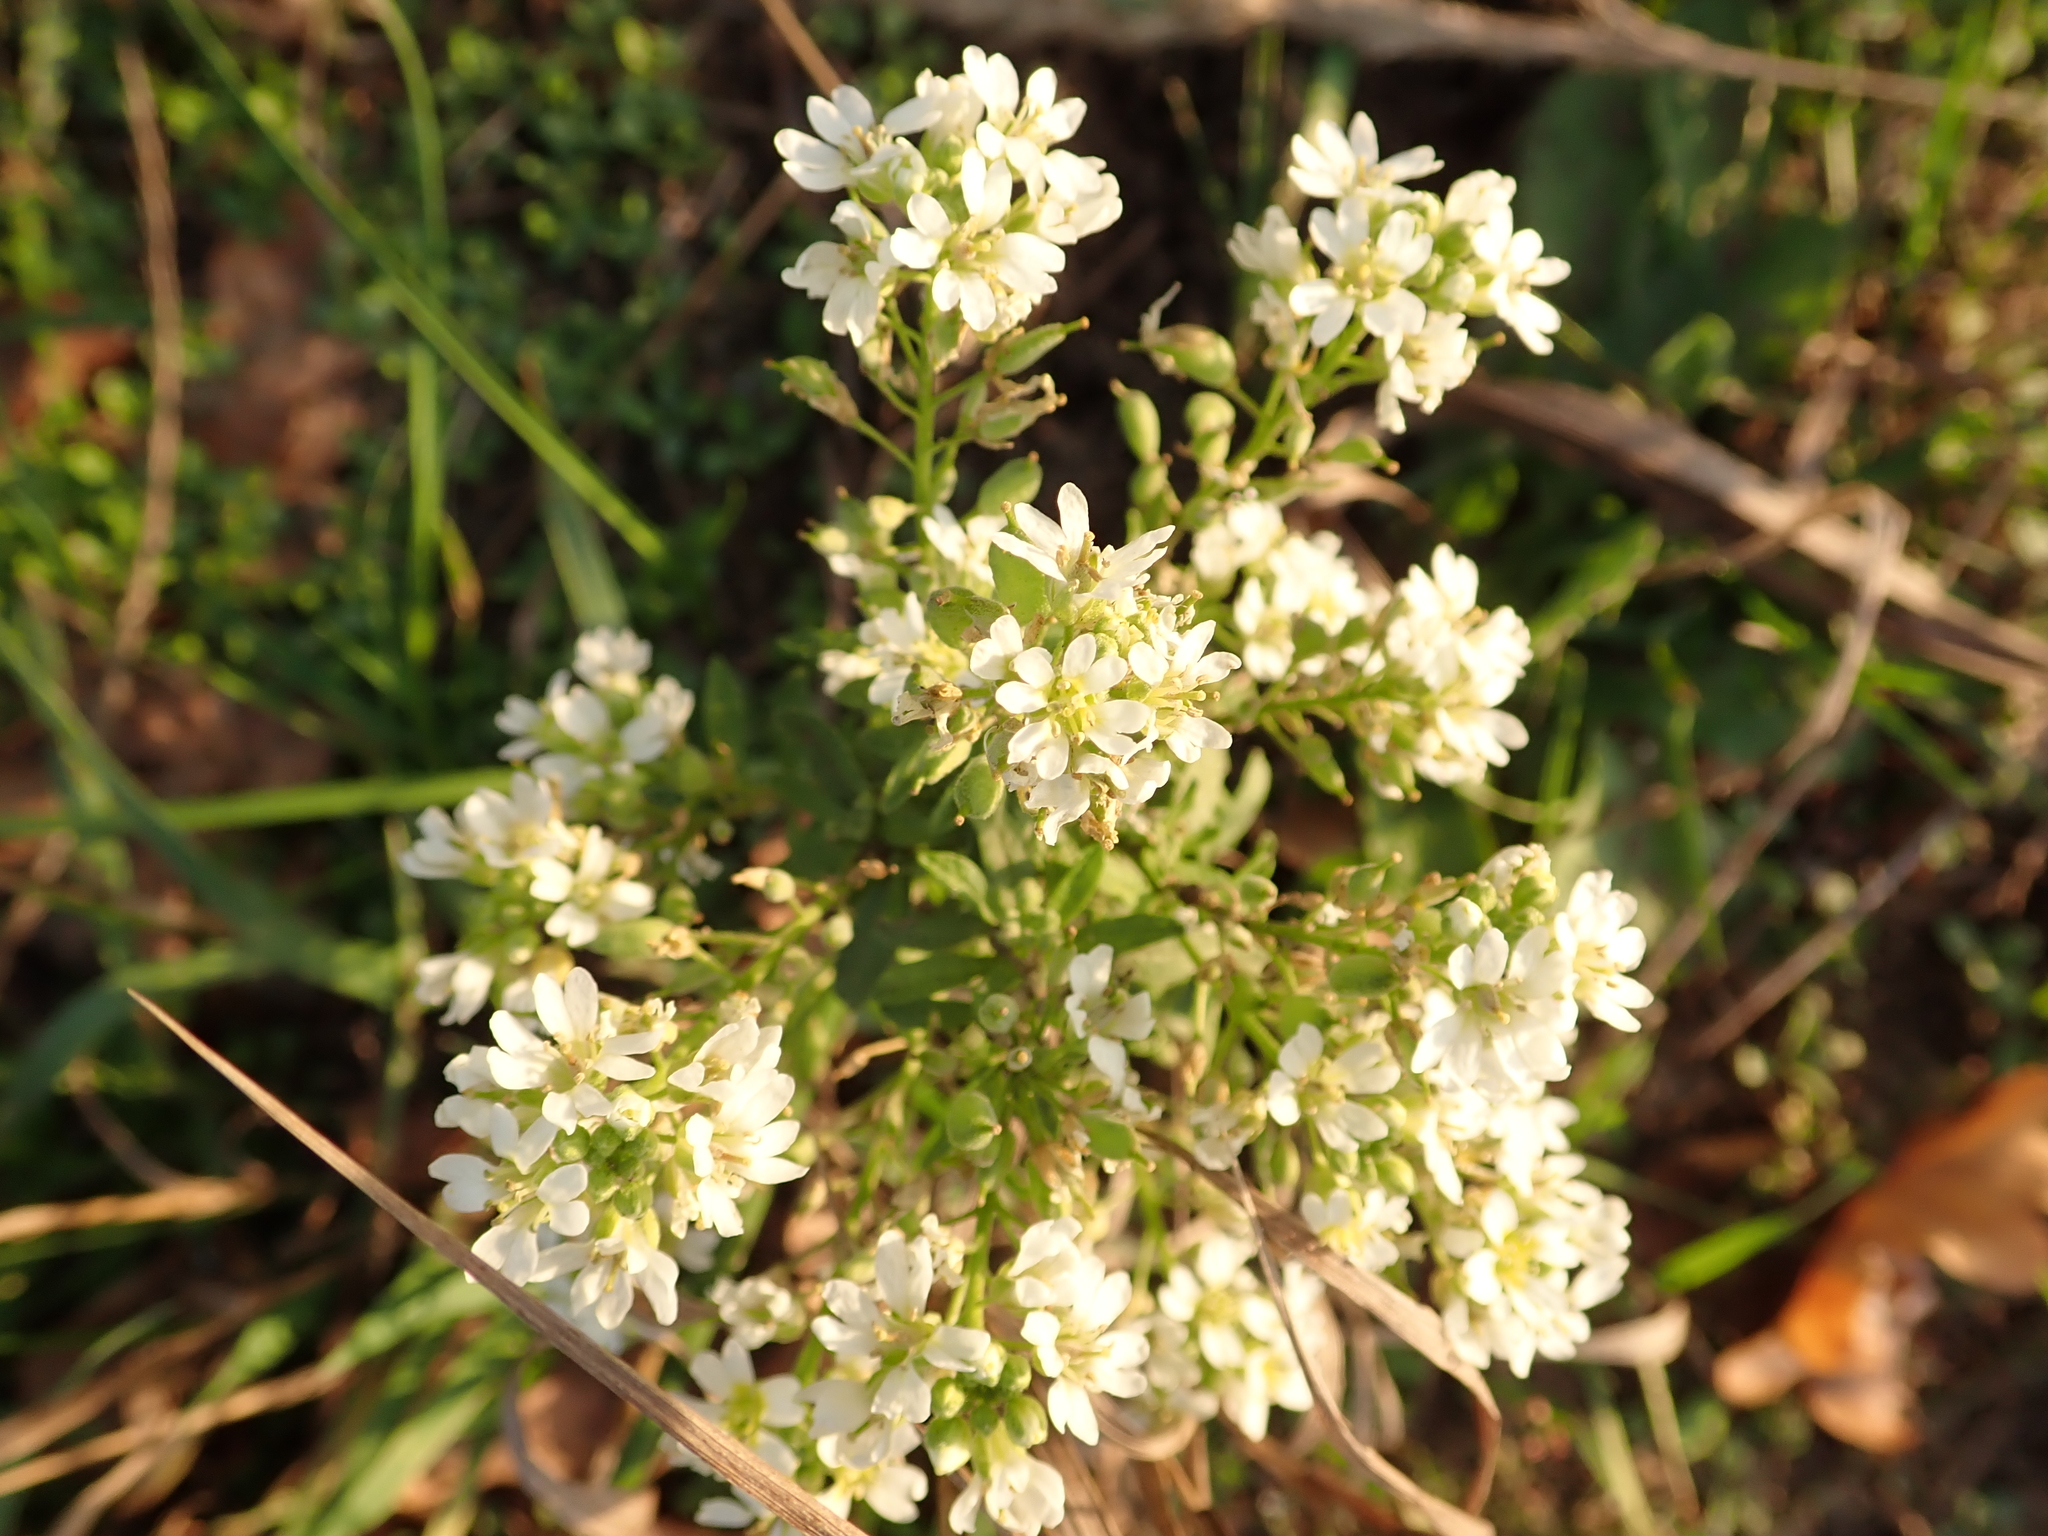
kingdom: Plantae
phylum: Tracheophyta
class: Magnoliopsida
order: Brassicales
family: Brassicaceae
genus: Berteroa
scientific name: Berteroa incana
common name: Hoary alison
